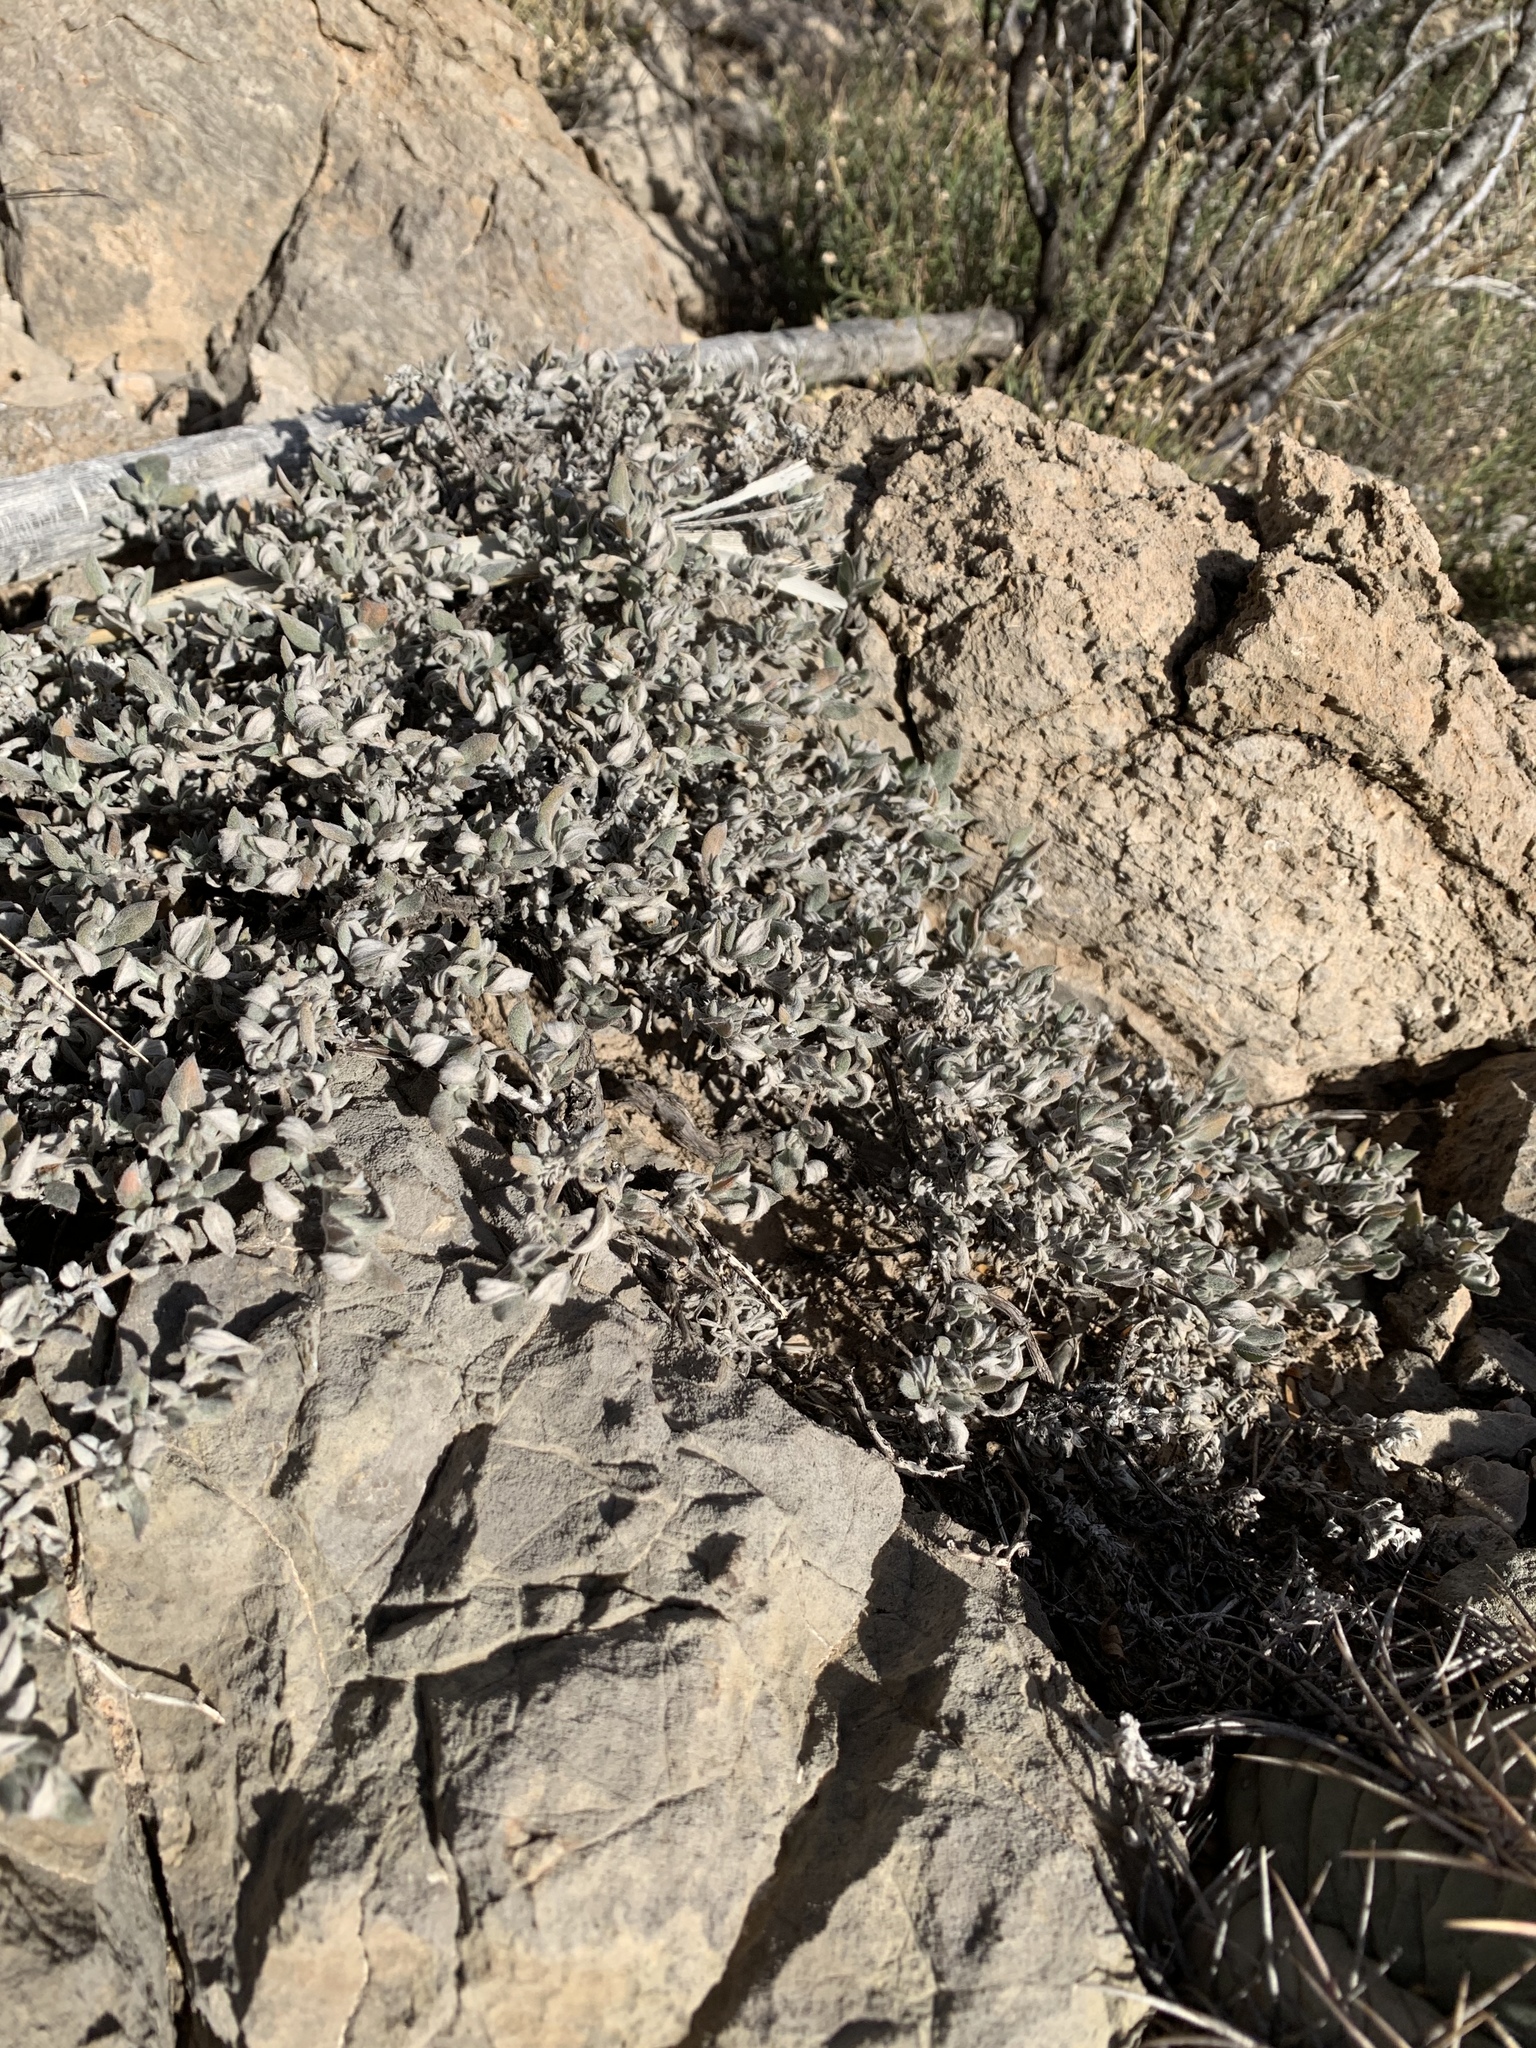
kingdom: Plantae
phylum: Tracheophyta
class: Magnoliopsida
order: Boraginales
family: Ehretiaceae
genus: Tiquilia
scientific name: Tiquilia canescens
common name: Hairy tiquilia
